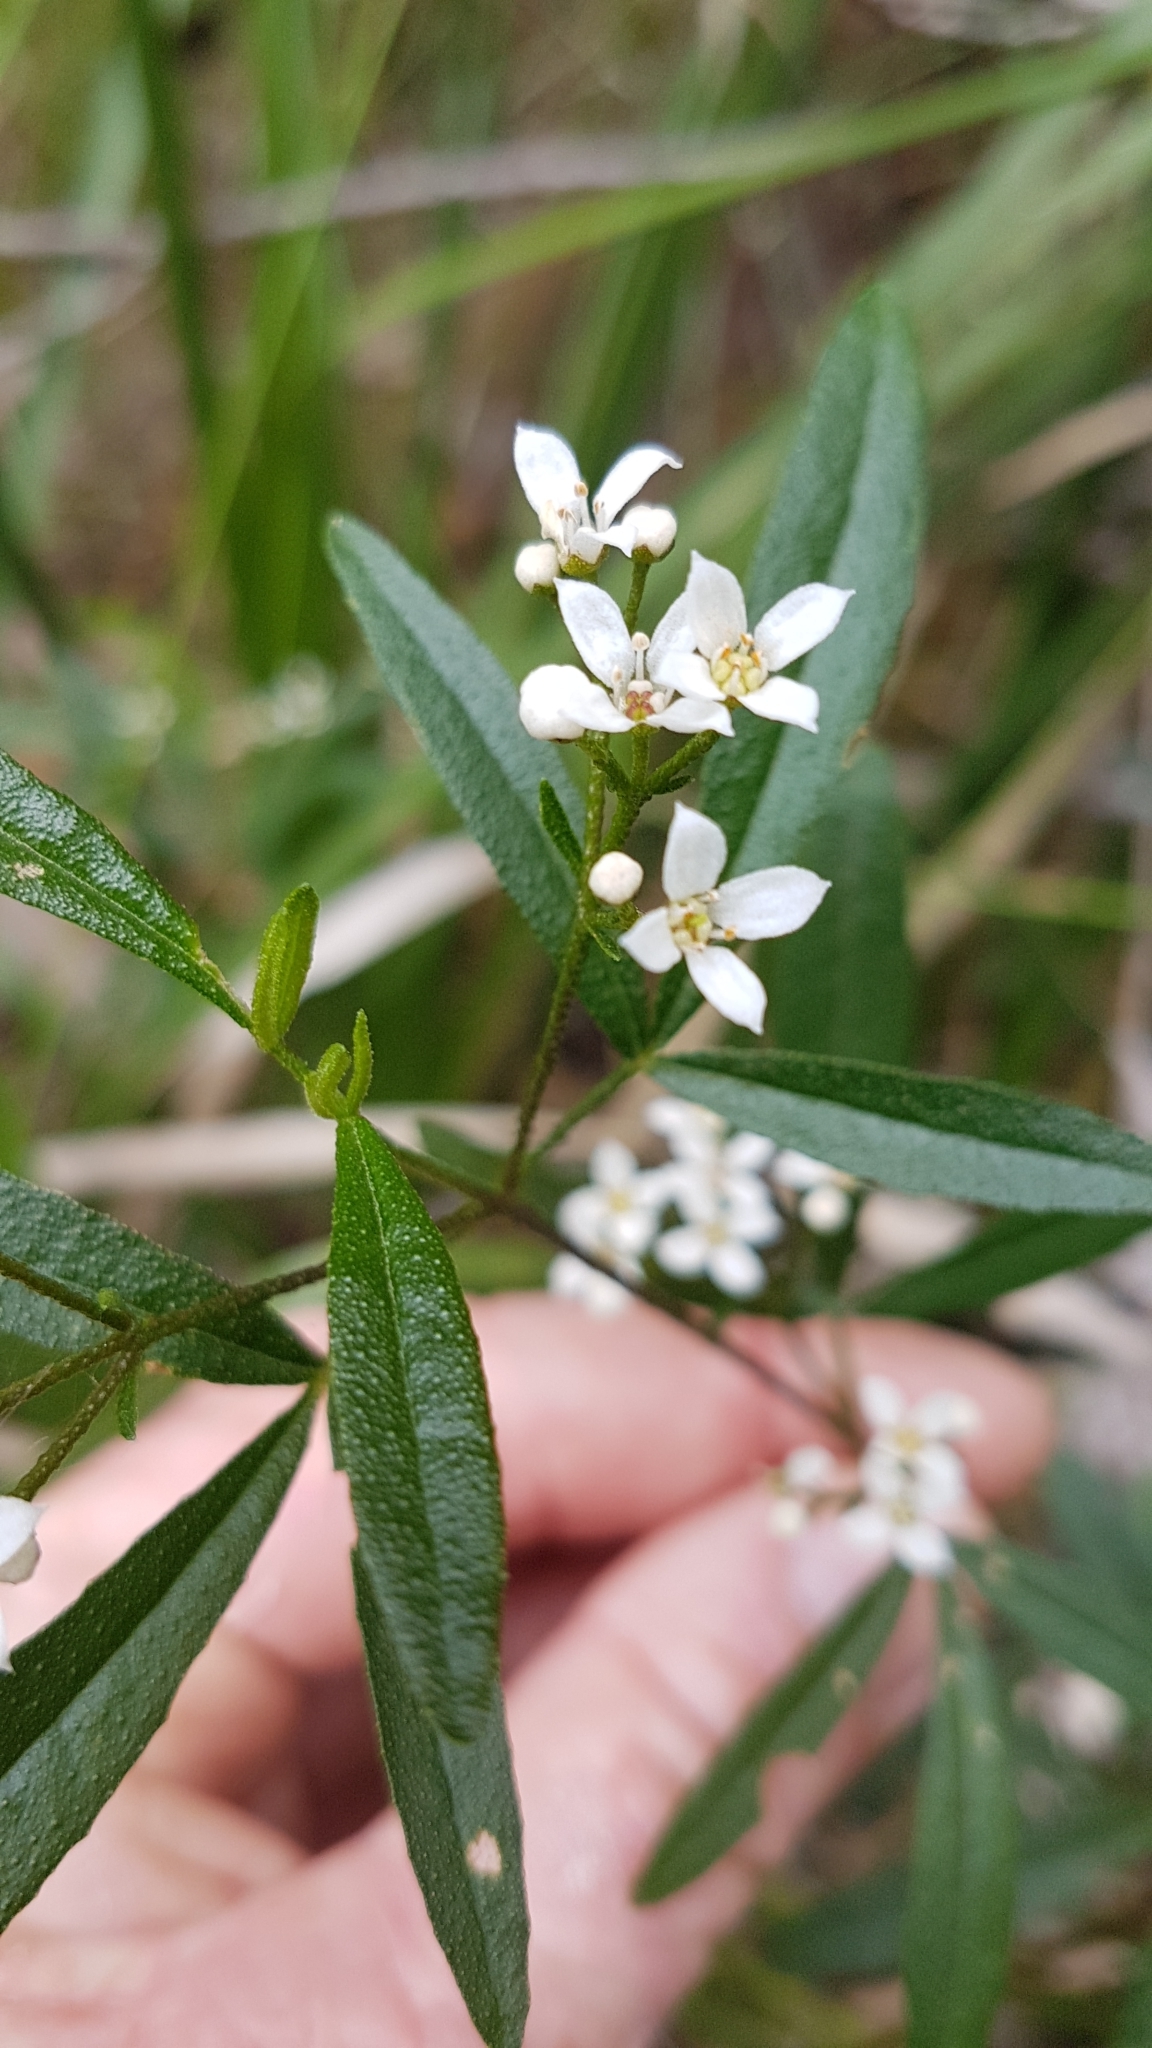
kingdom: Plantae
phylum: Tracheophyta
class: Magnoliopsida
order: Sapindales
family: Rutaceae
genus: Zieria
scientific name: Zieria smithii
